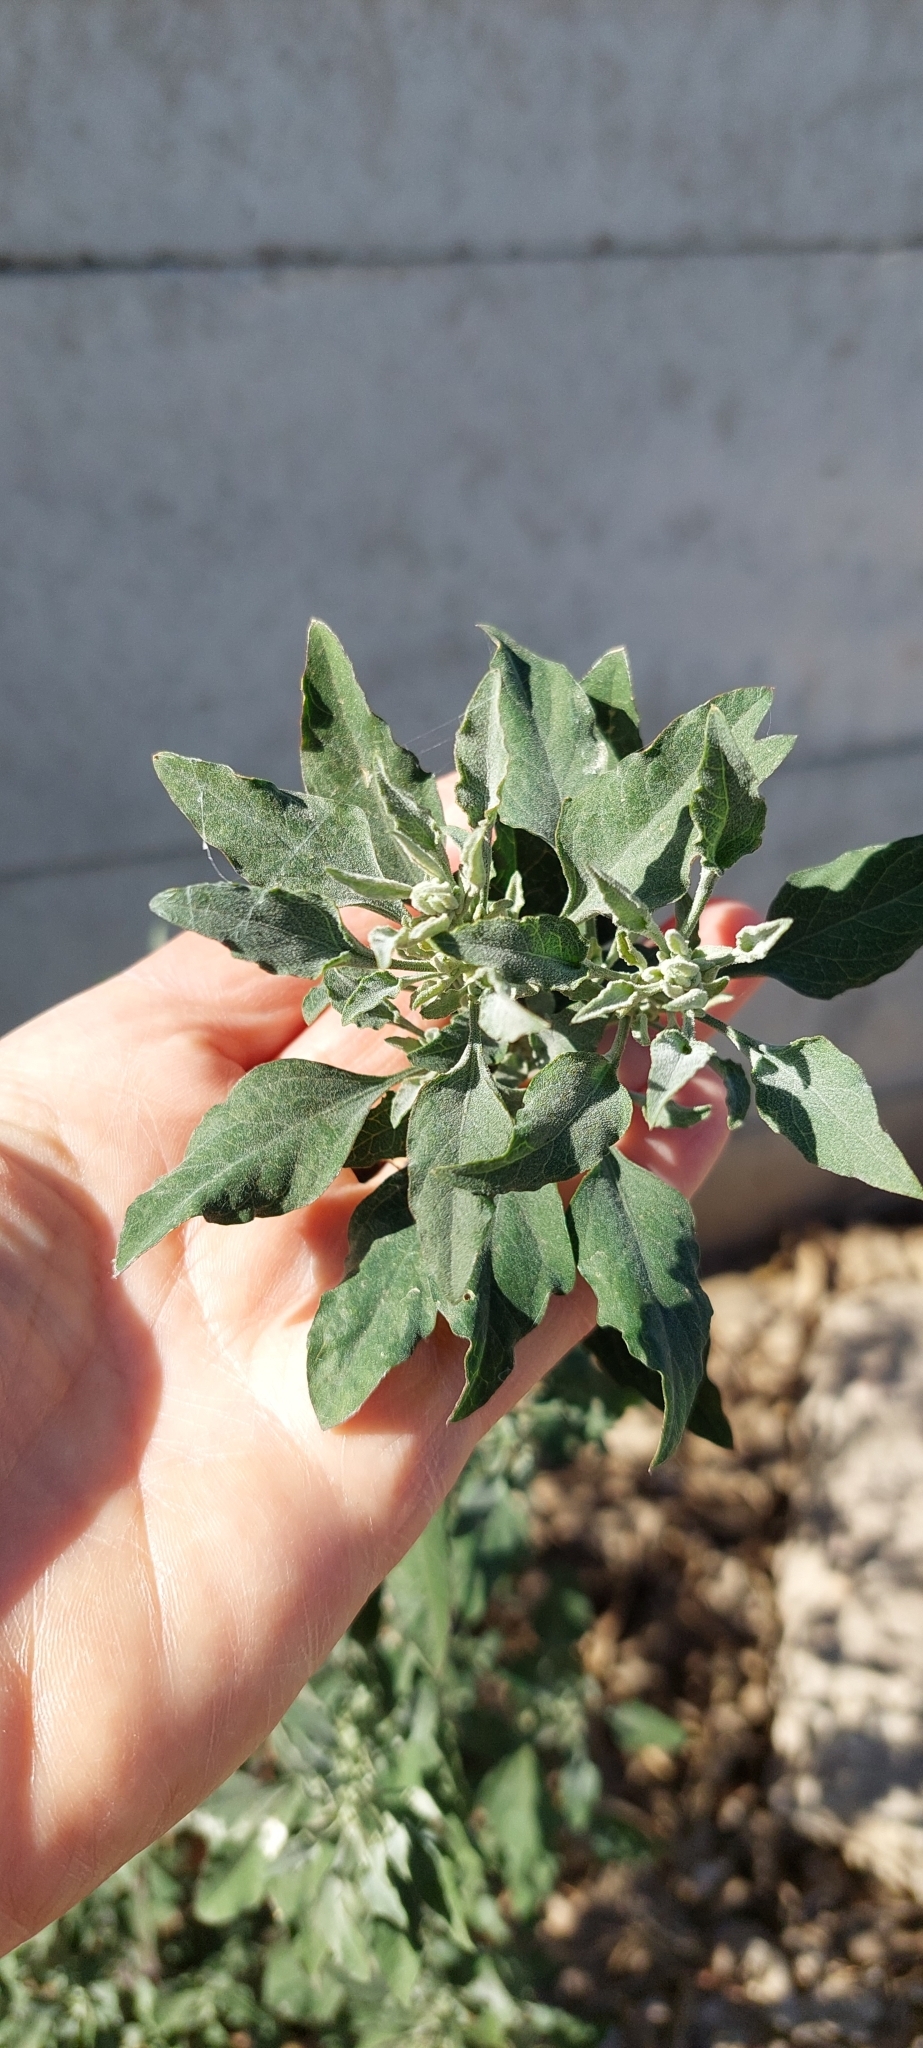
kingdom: Plantae
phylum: Tracheophyta
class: Magnoliopsida
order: Caryophyllales
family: Amaranthaceae
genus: Chenopodium
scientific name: Chenopodium album
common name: Fat-hen
